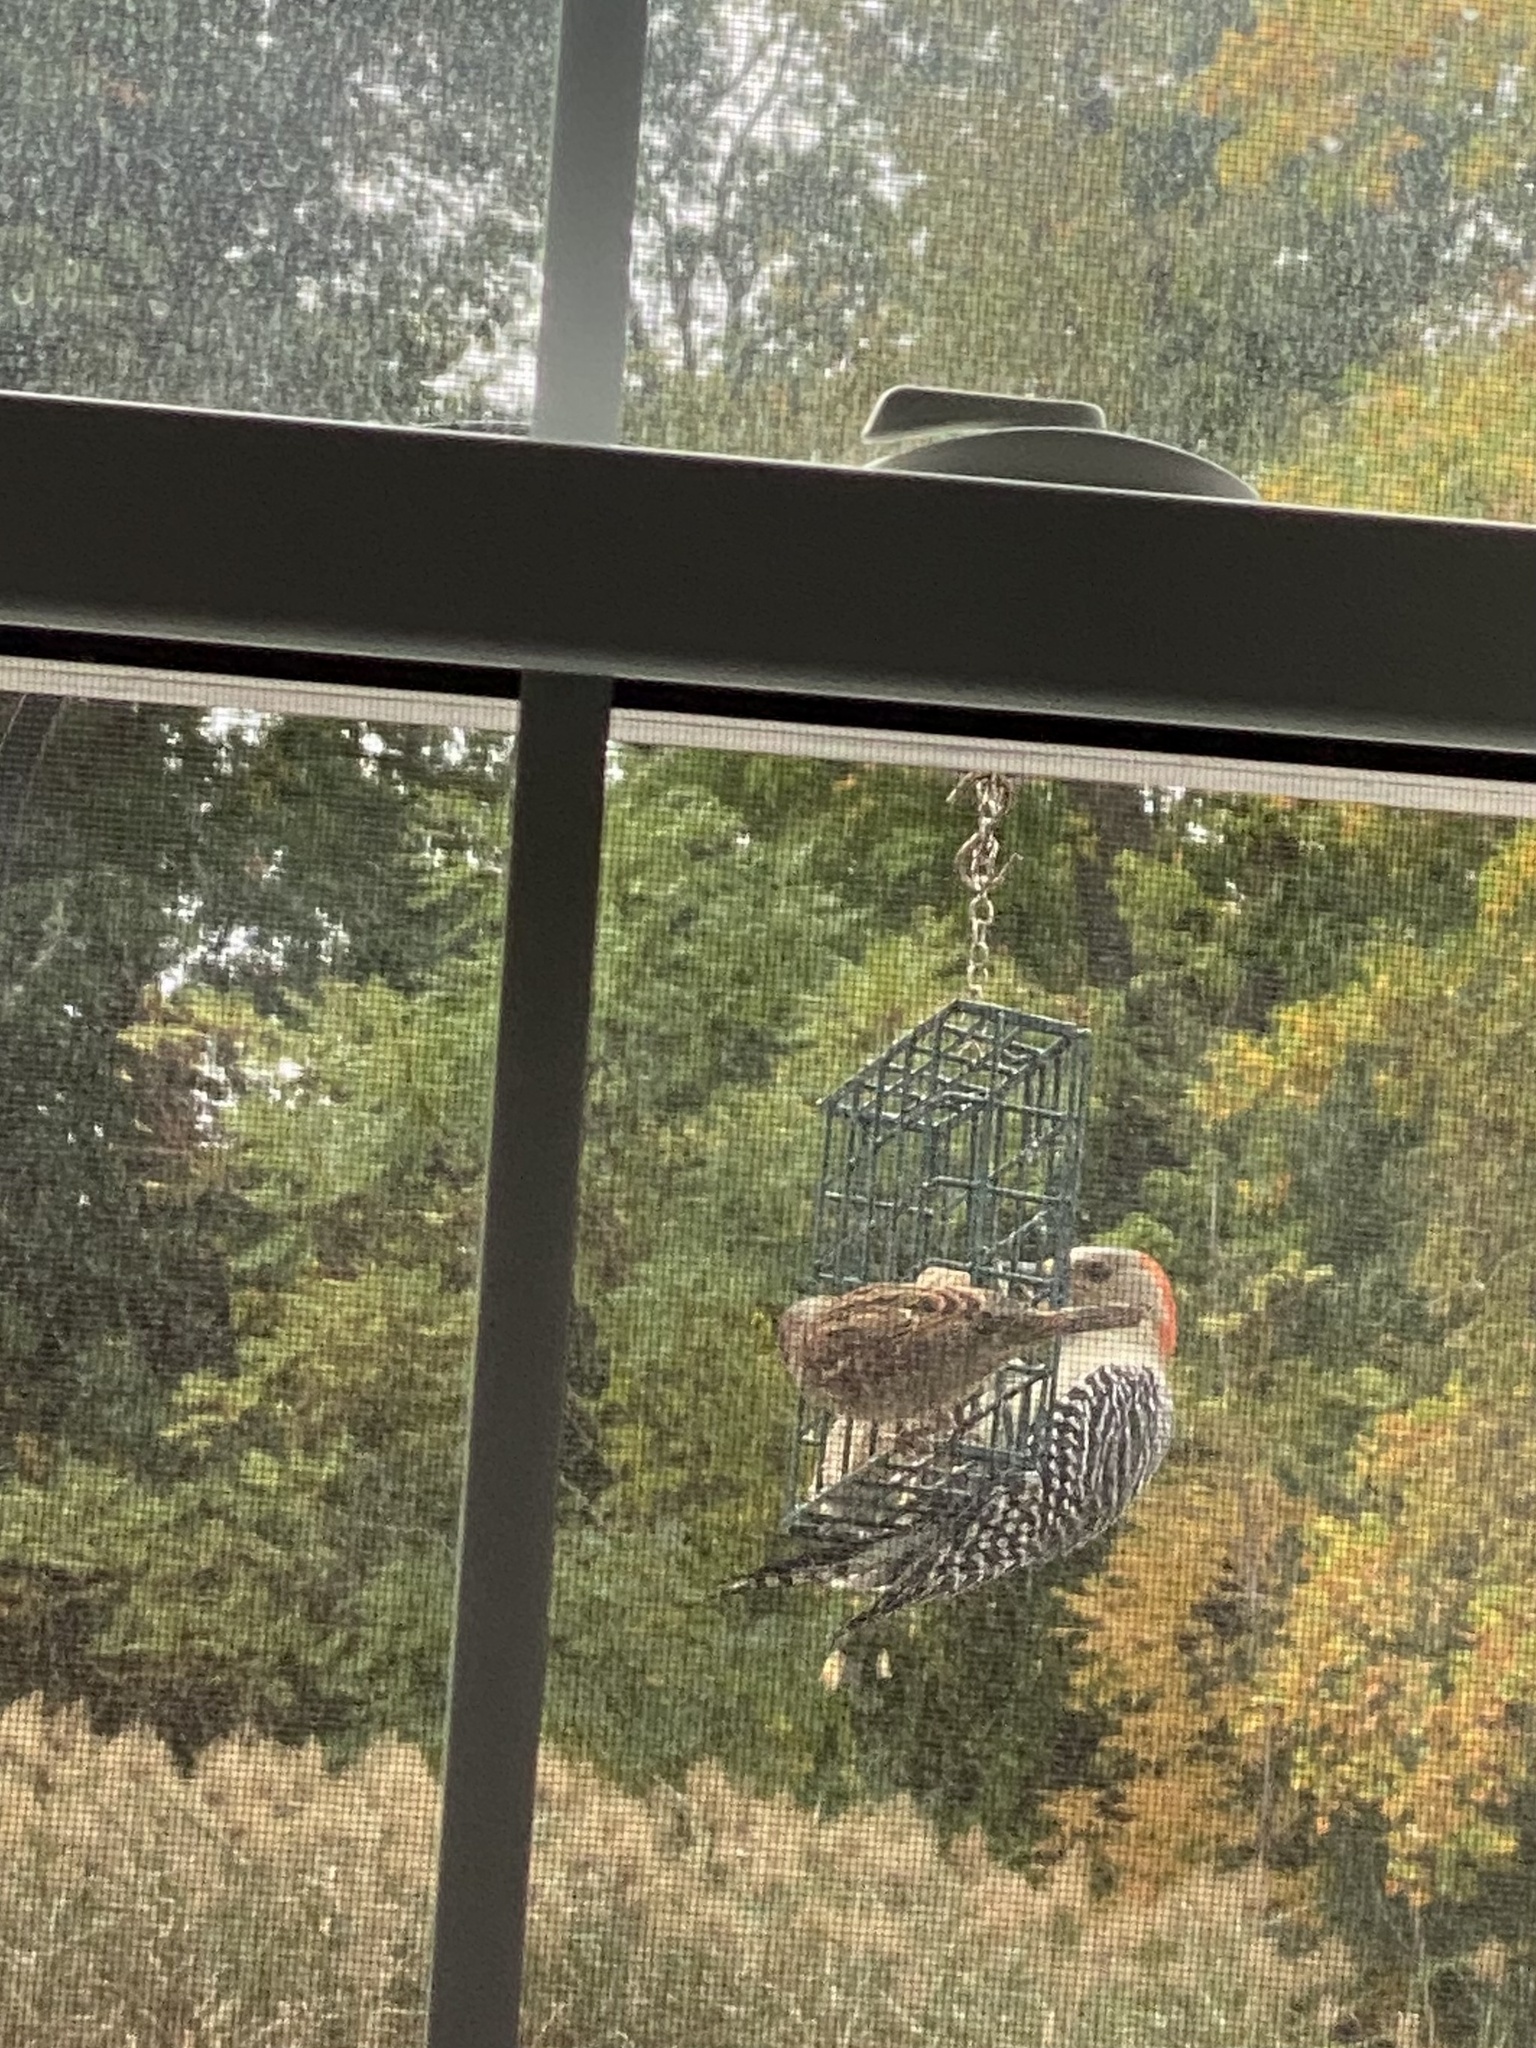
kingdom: Animalia
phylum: Chordata
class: Aves
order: Piciformes
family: Picidae
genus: Melanerpes
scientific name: Melanerpes carolinus
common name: Red-bellied woodpecker
